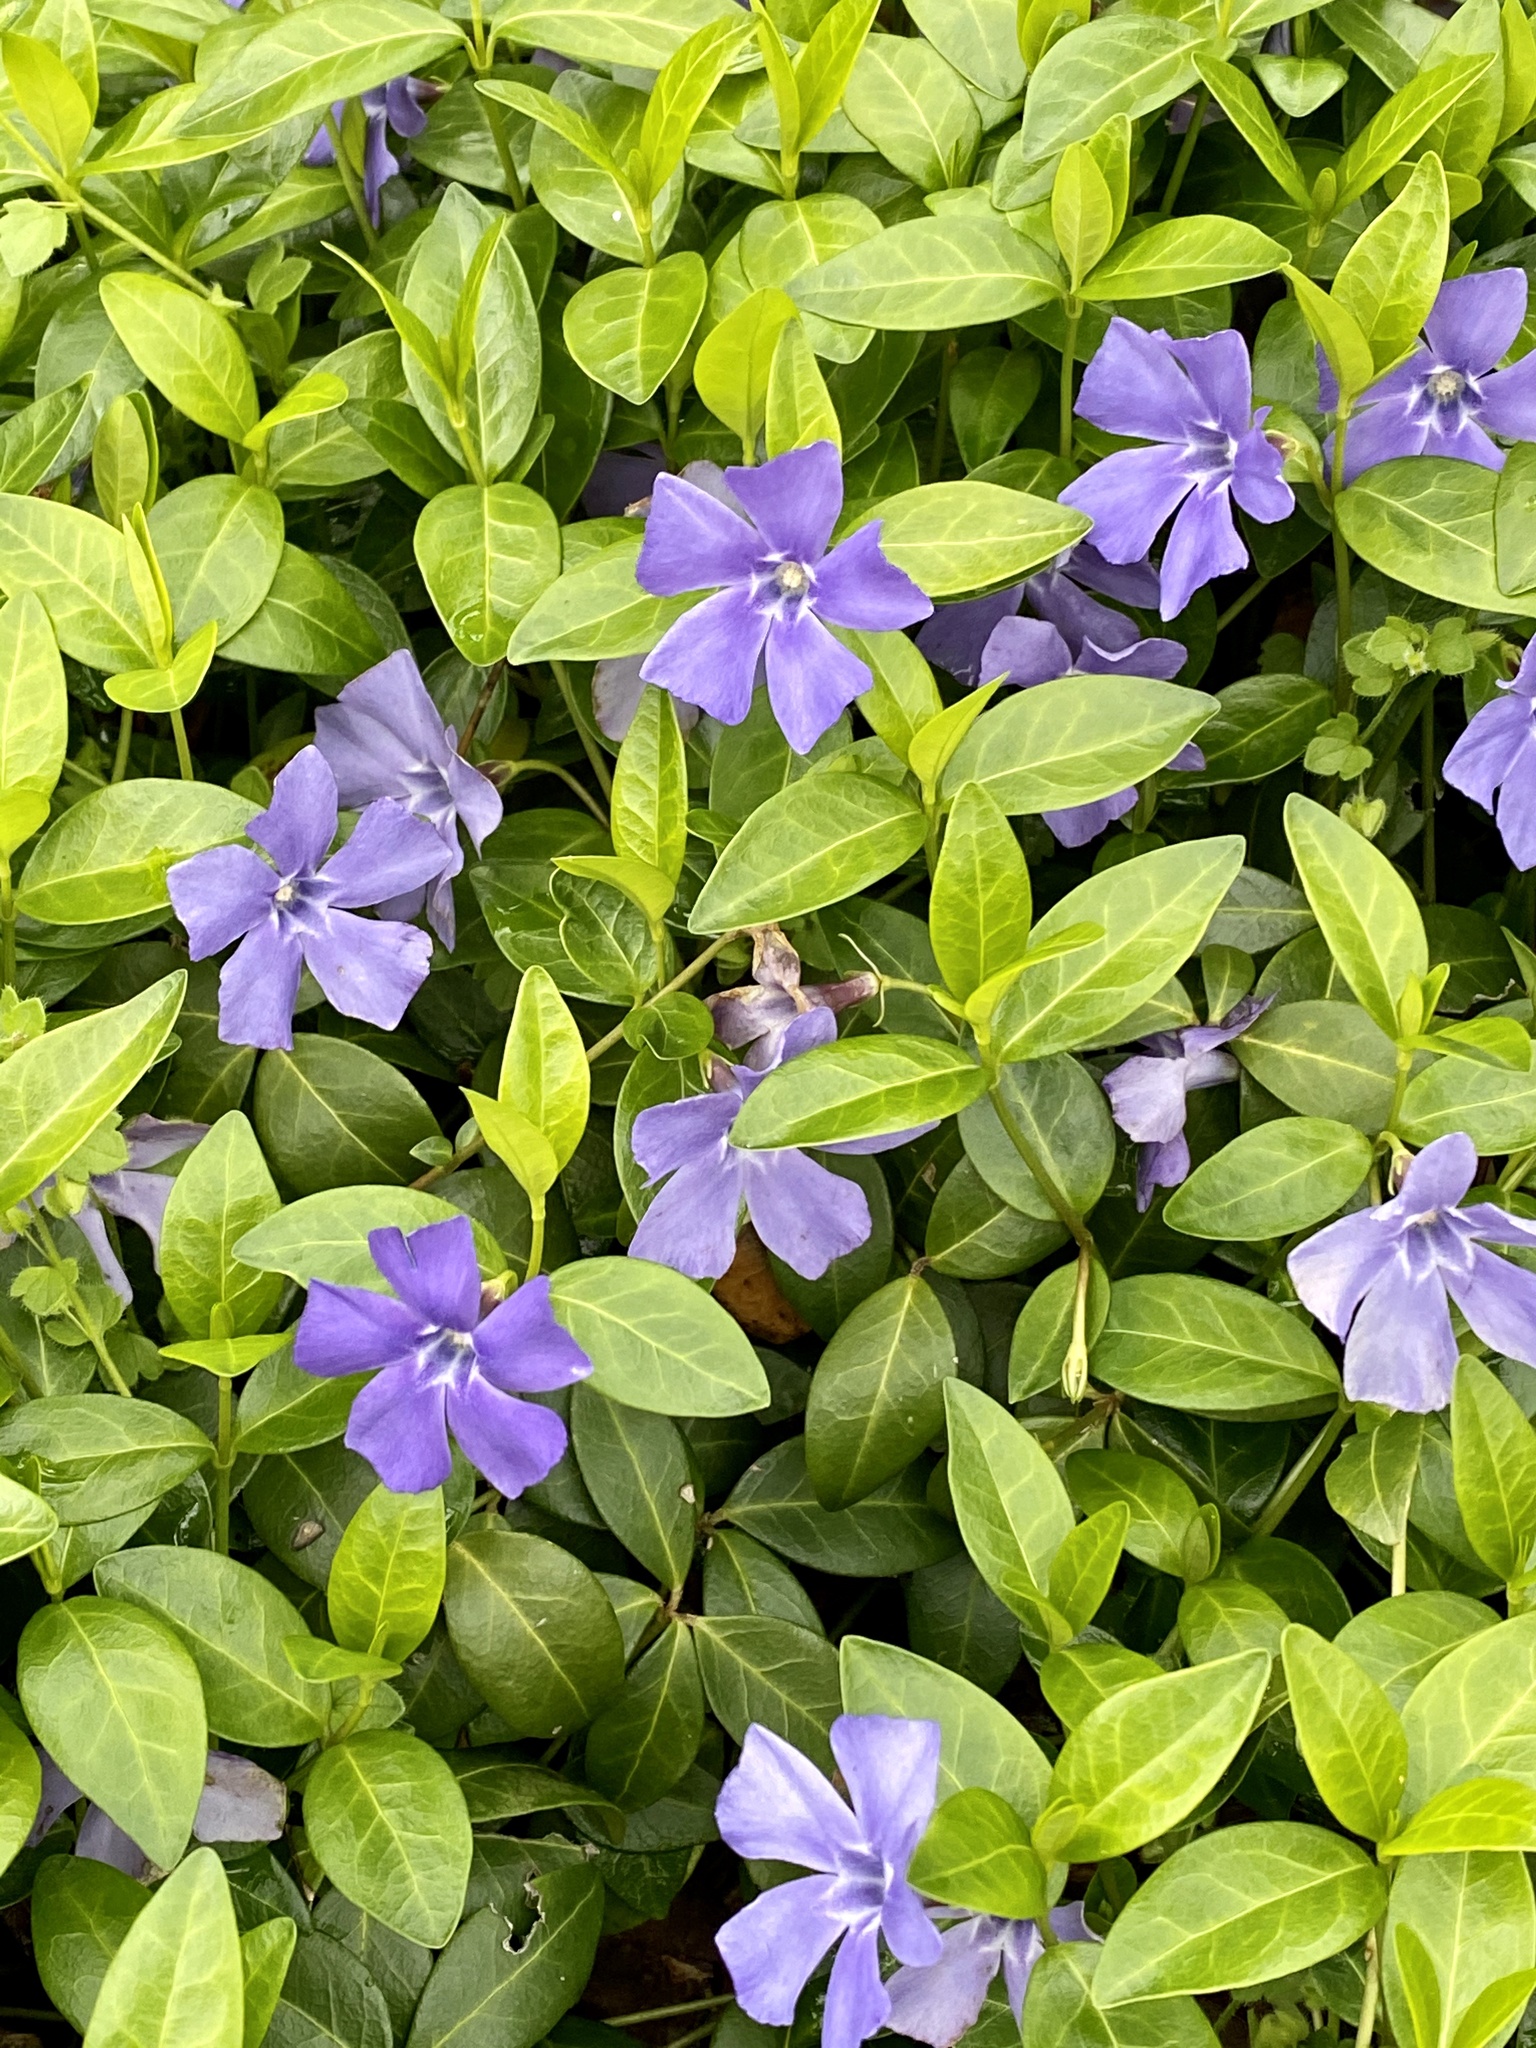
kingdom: Plantae
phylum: Tracheophyta
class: Magnoliopsida
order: Gentianales
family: Apocynaceae
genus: Vinca
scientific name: Vinca minor
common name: Lesser periwinkle
